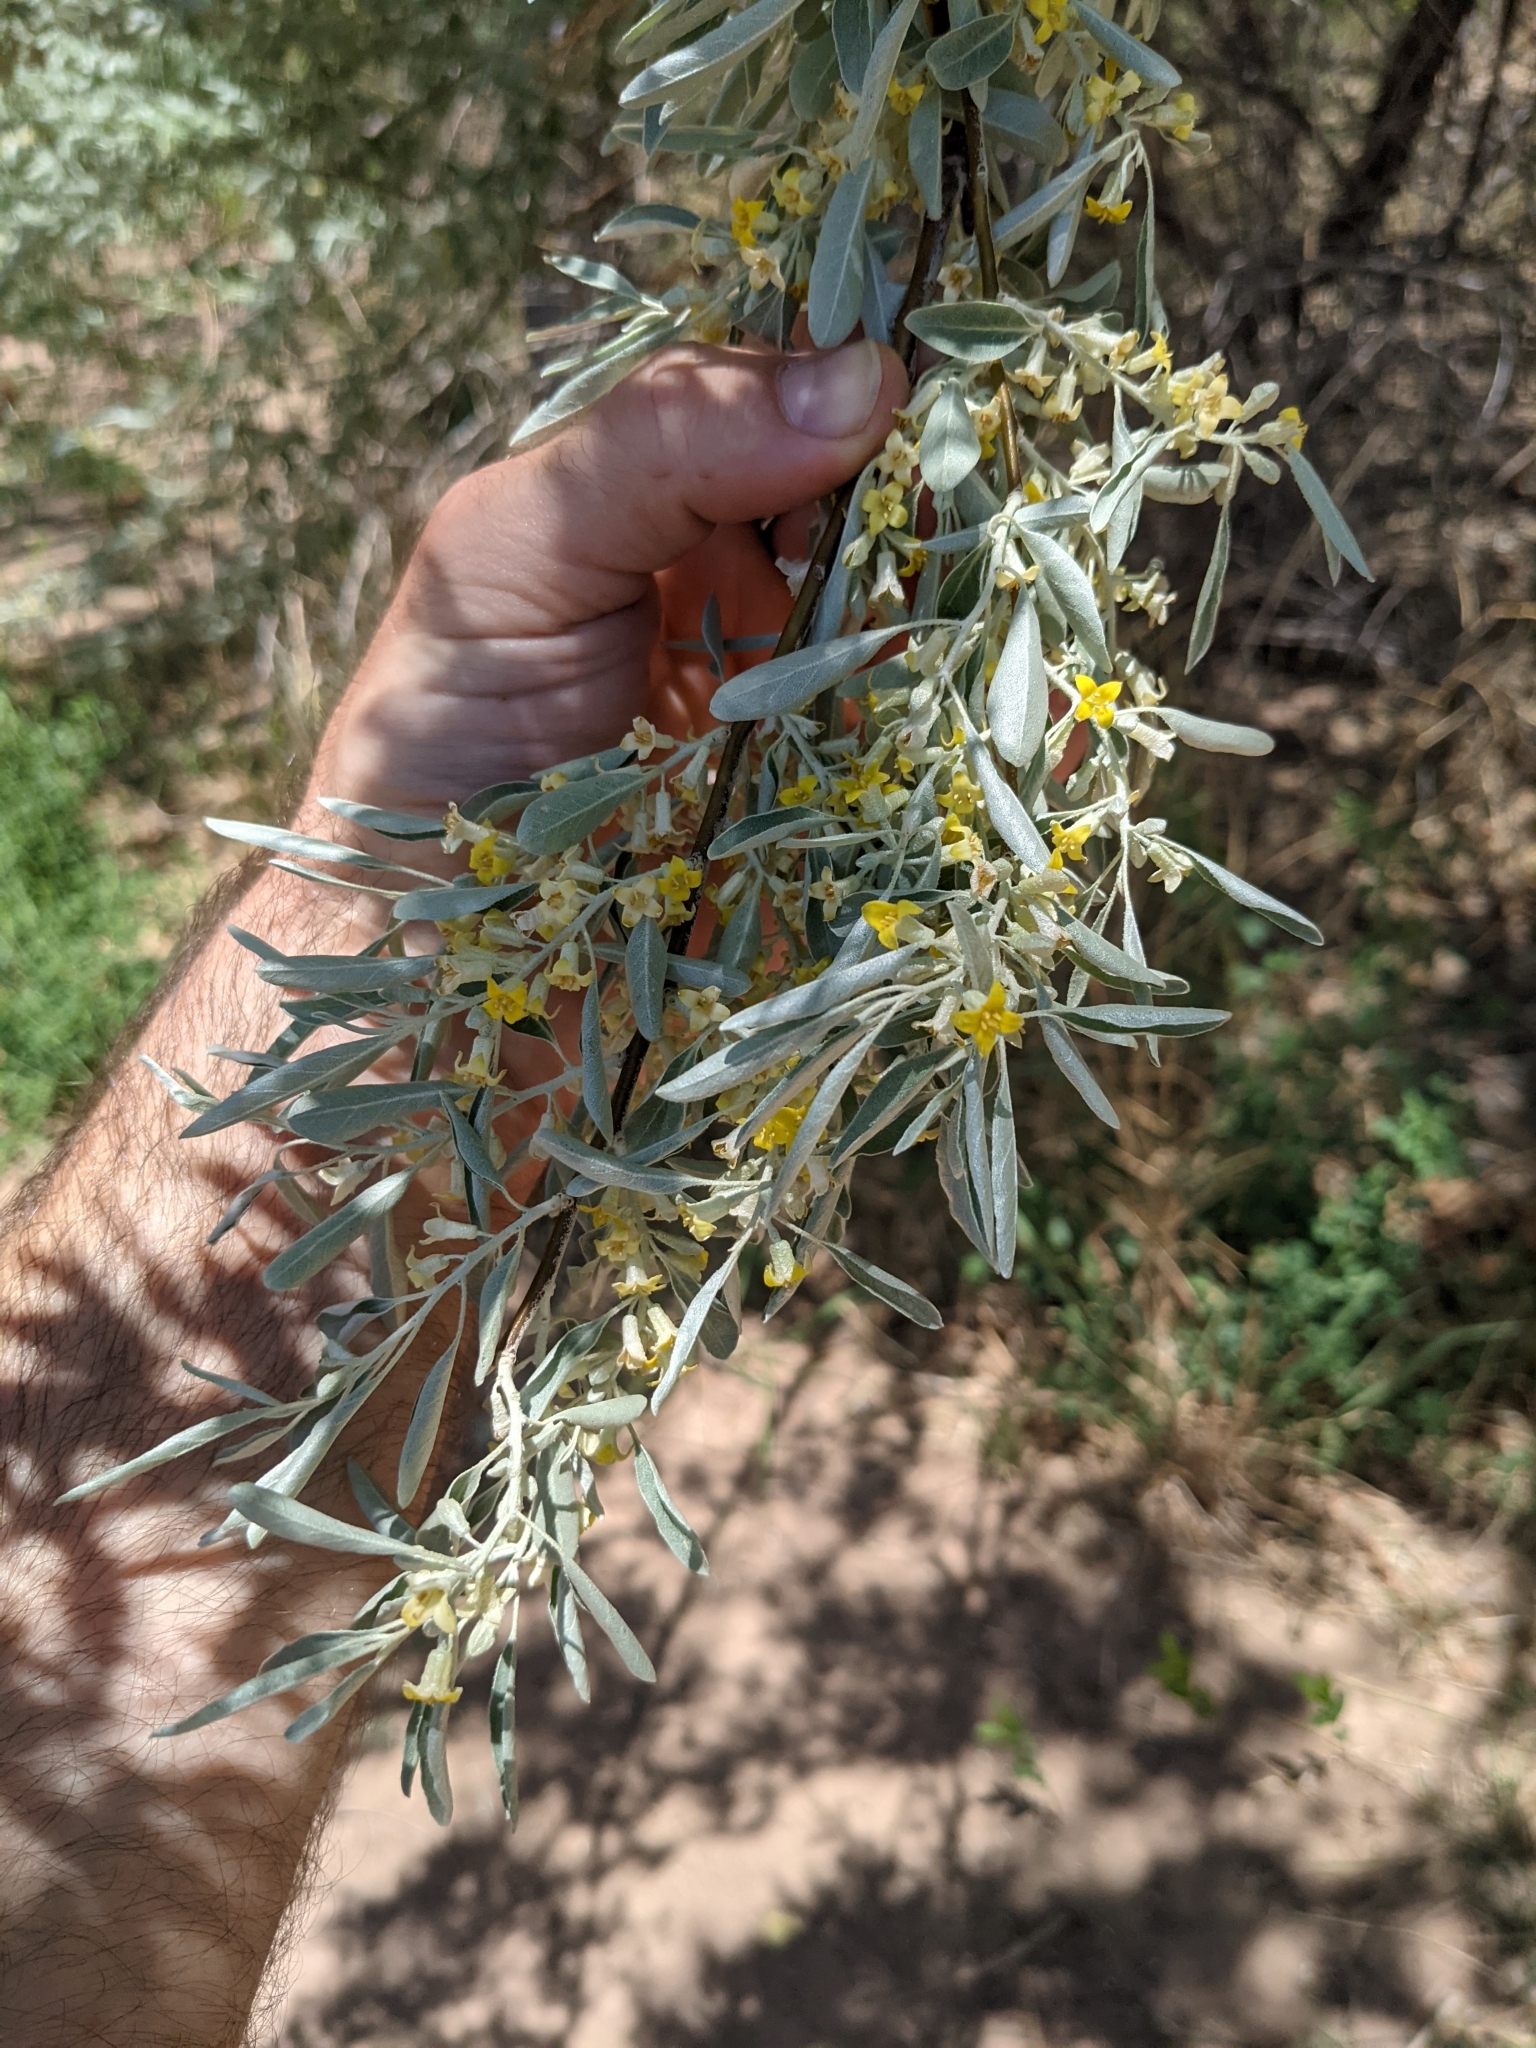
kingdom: Plantae
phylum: Tracheophyta
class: Magnoliopsida
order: Rosales
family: Elaeagnaceae
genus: Elaeagnus
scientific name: Elaeagnus angustifolia
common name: Russian olive
